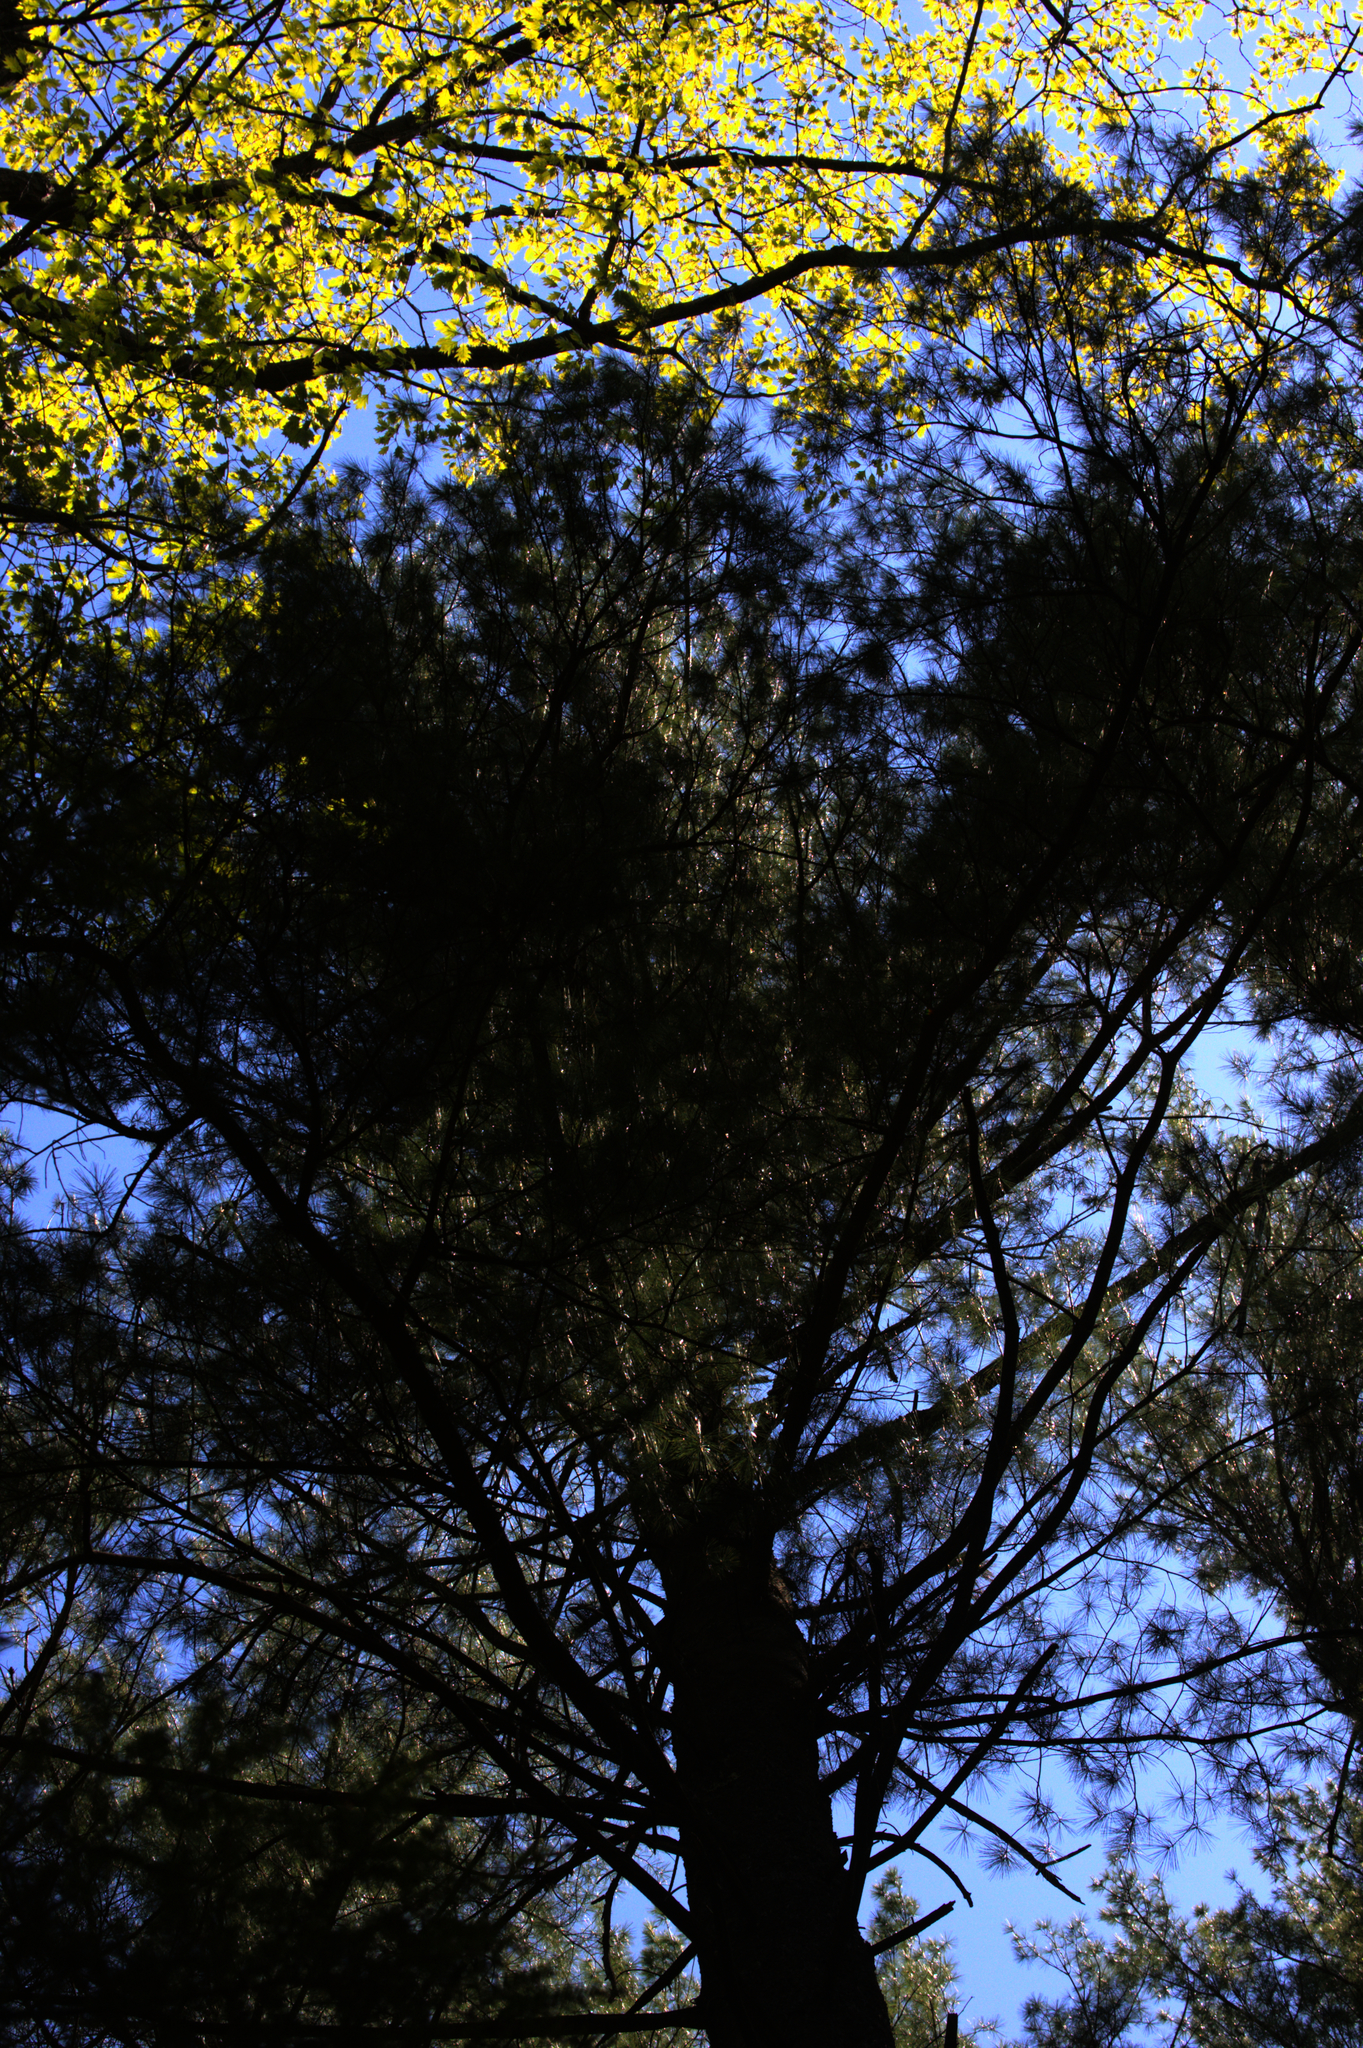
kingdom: Plantae
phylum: Tracheophyta
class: Pinopsida
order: Pinales
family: Pinaceae
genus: Pinus
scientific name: Pinus strobus
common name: Weymouth pine
